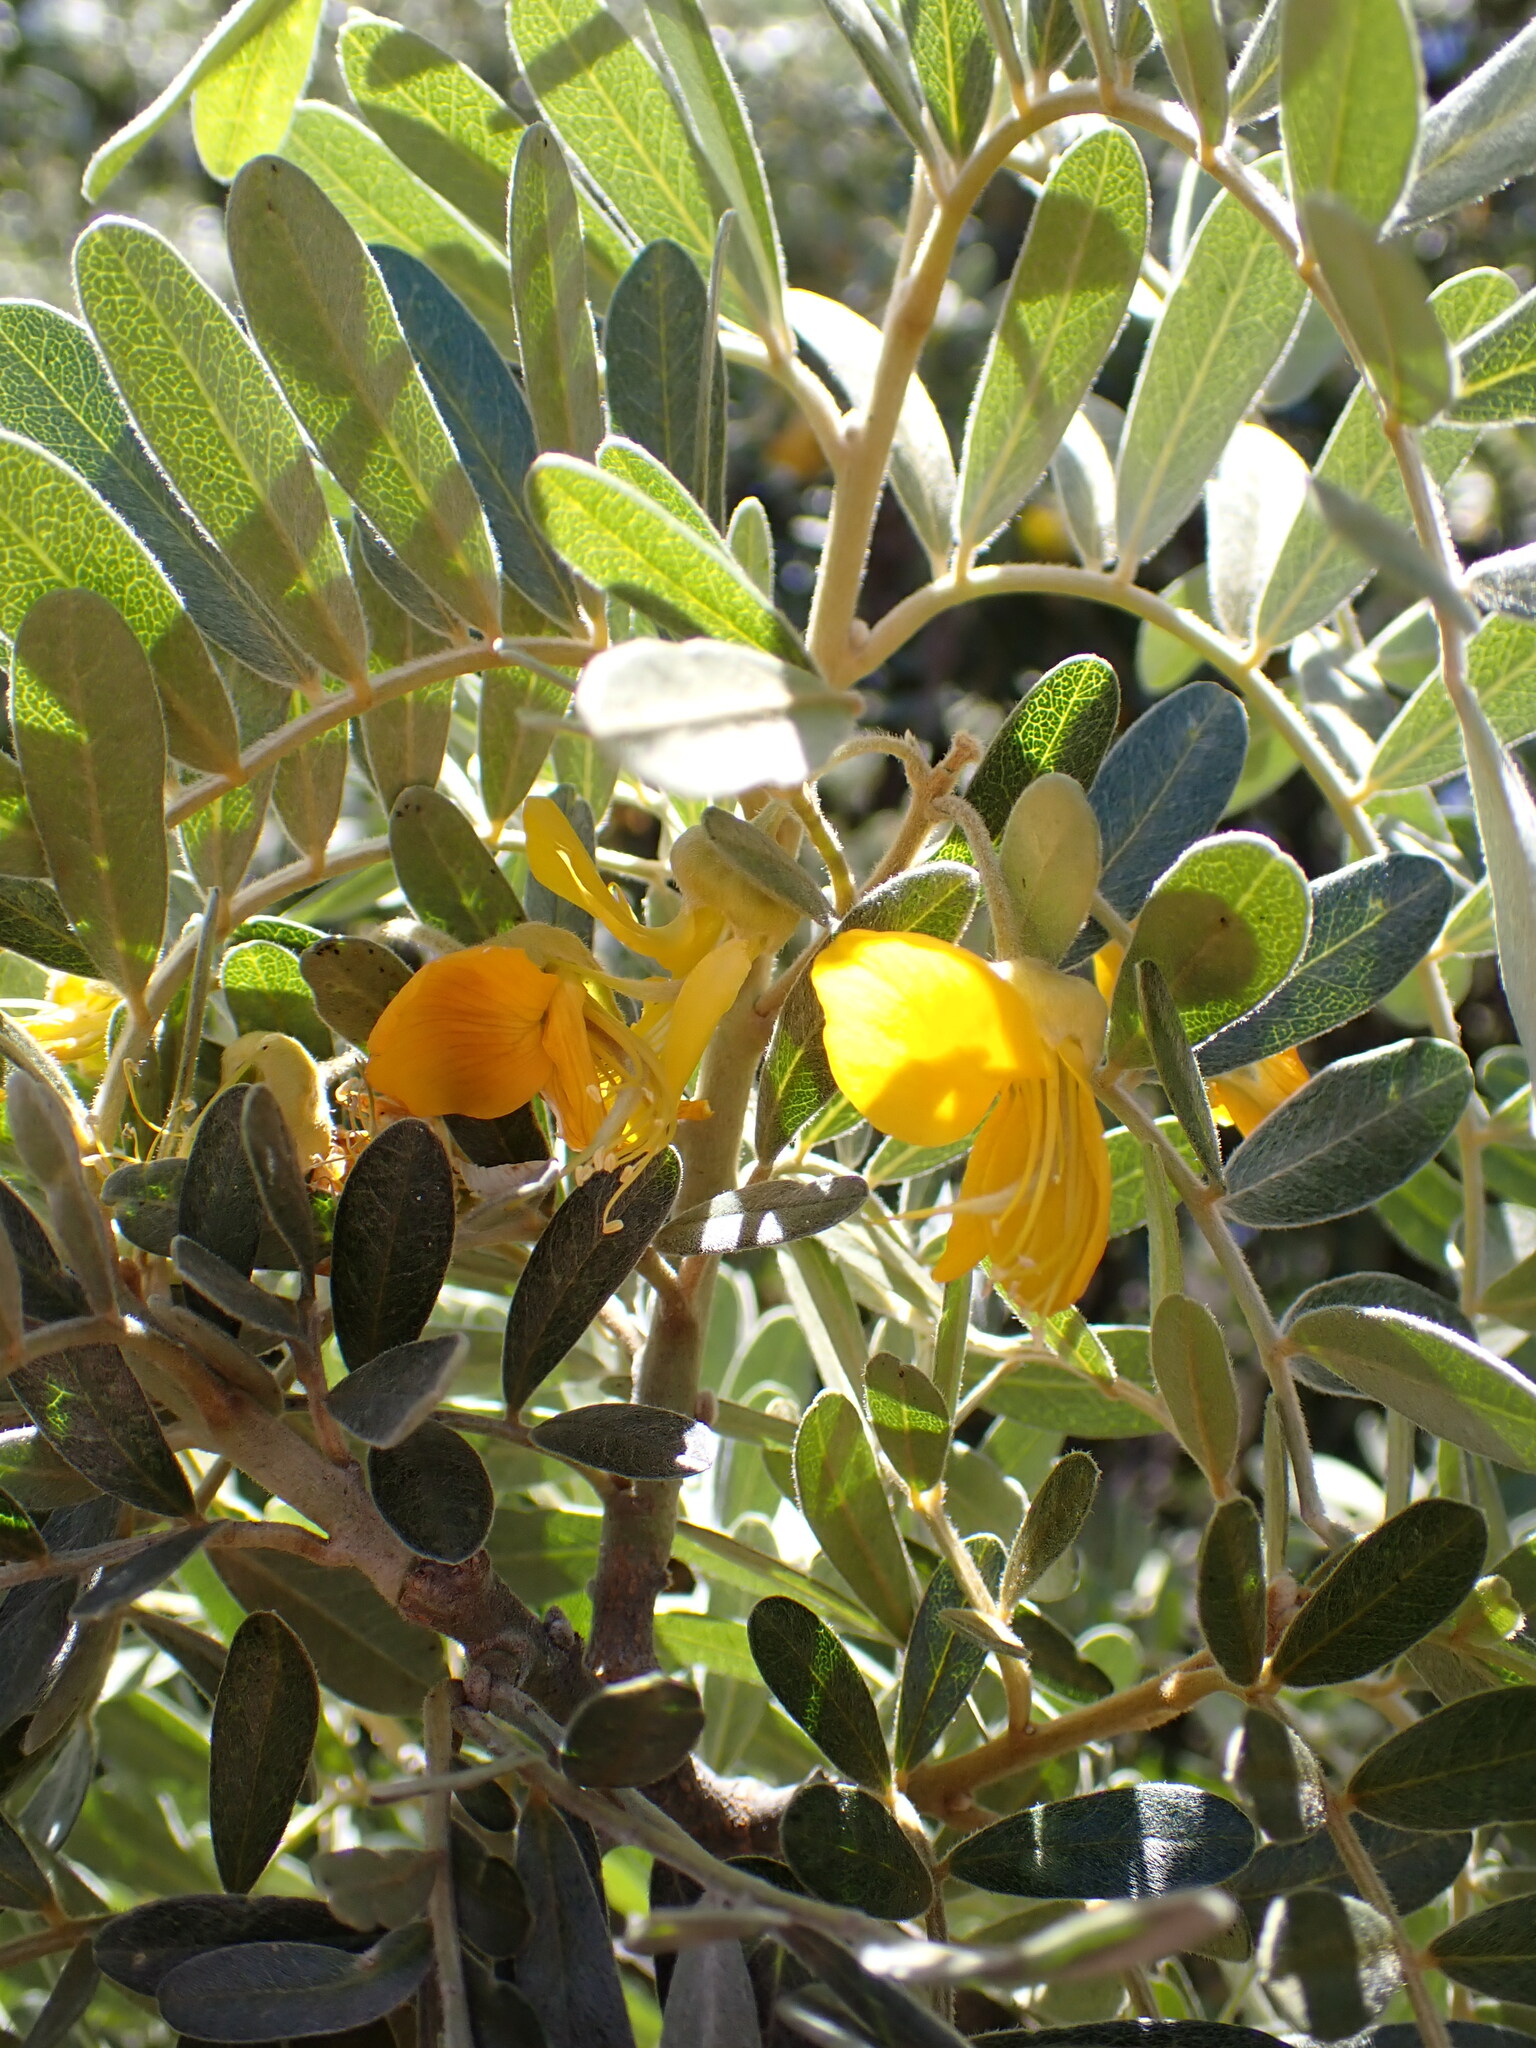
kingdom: Plantae
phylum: Tracheophyta
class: Magnoliopsida
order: Fabales
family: Fabaceae
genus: Sophora
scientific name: Sophora chrysophylla
